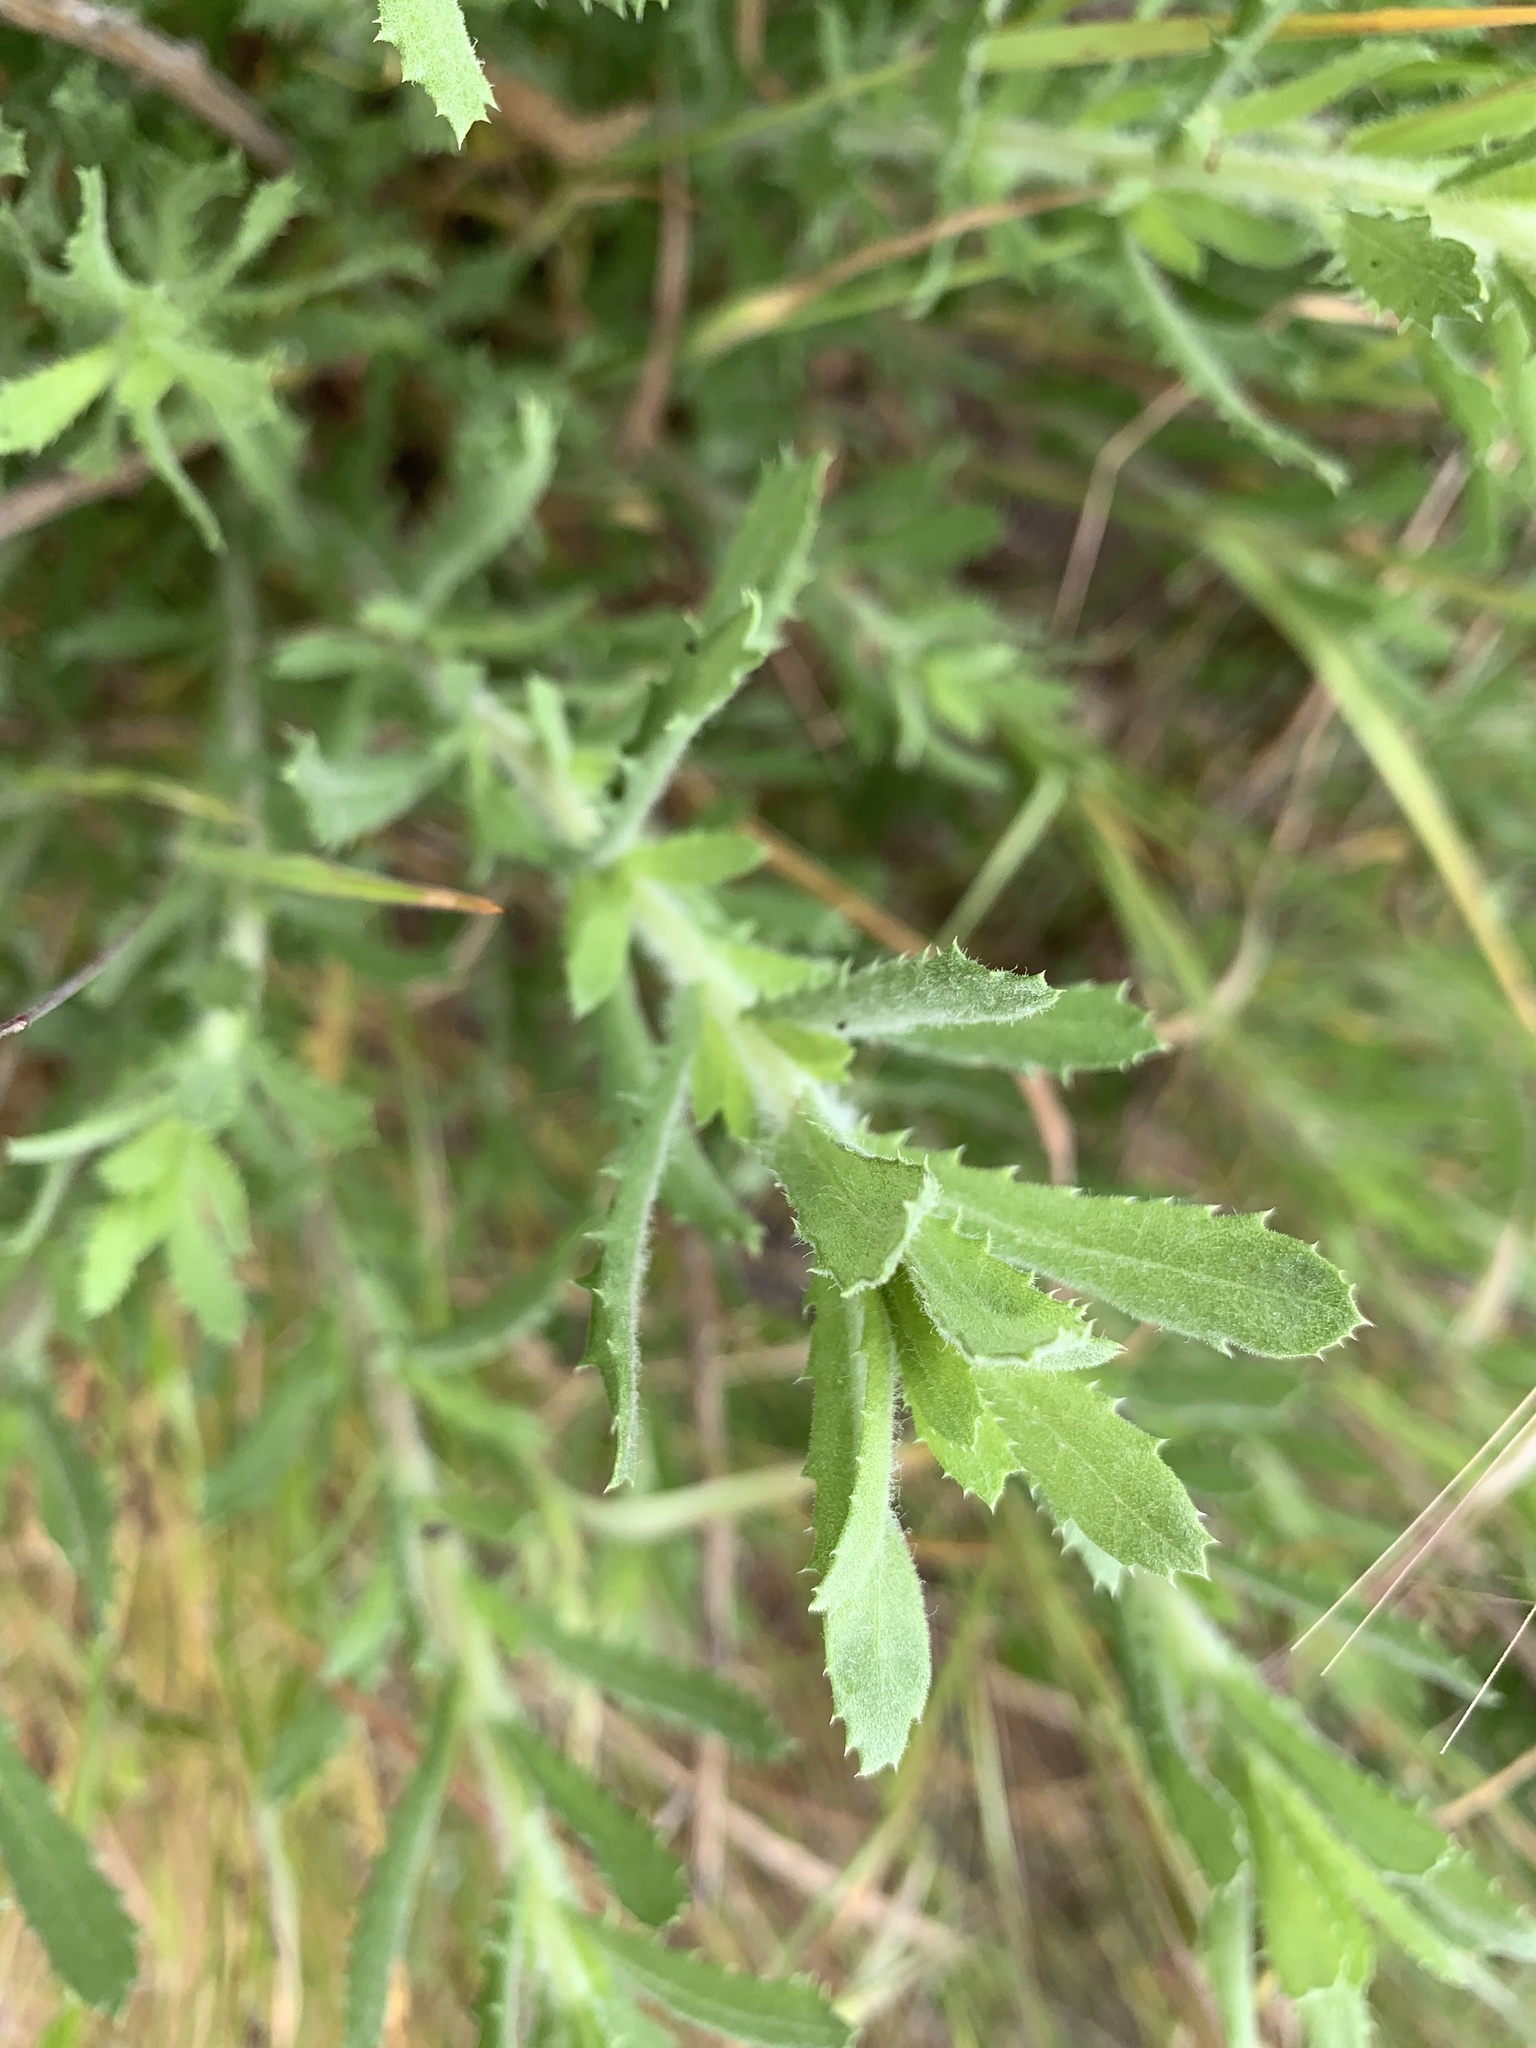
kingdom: Plantae
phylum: Tracheophyta
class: Magnoliopsida
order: Asterales
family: Asteraceae
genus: Isocoma
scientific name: Isocoma menziesii
